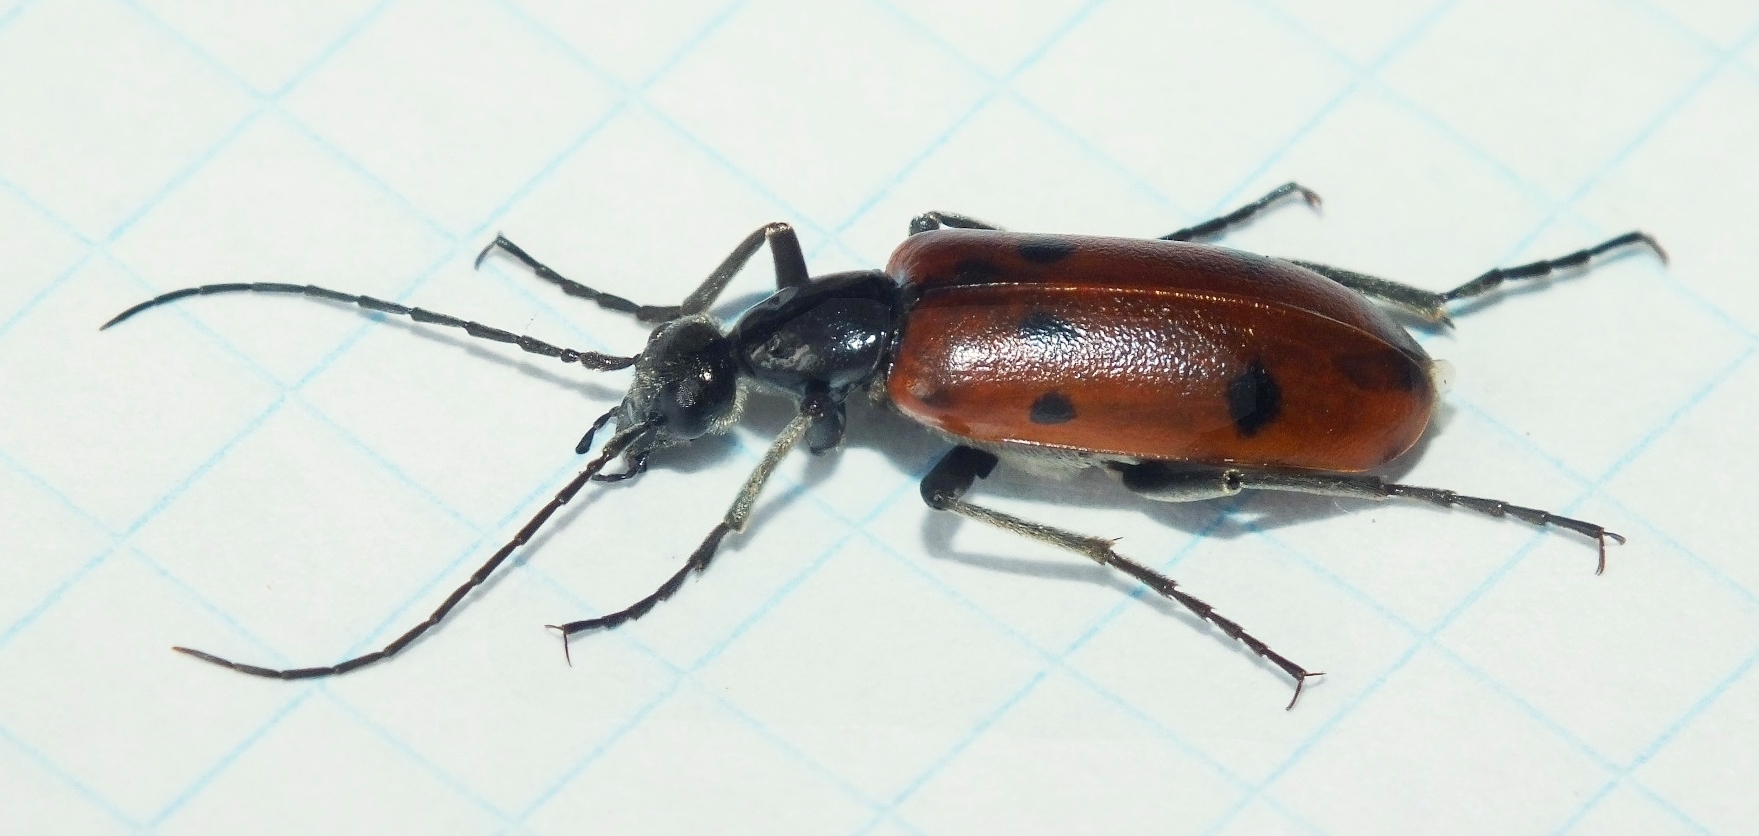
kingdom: Animalia
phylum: Arthropoda
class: Insecta
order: Coleoptera
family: Meloidae
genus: Stenodera
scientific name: Stenodera caucasica
